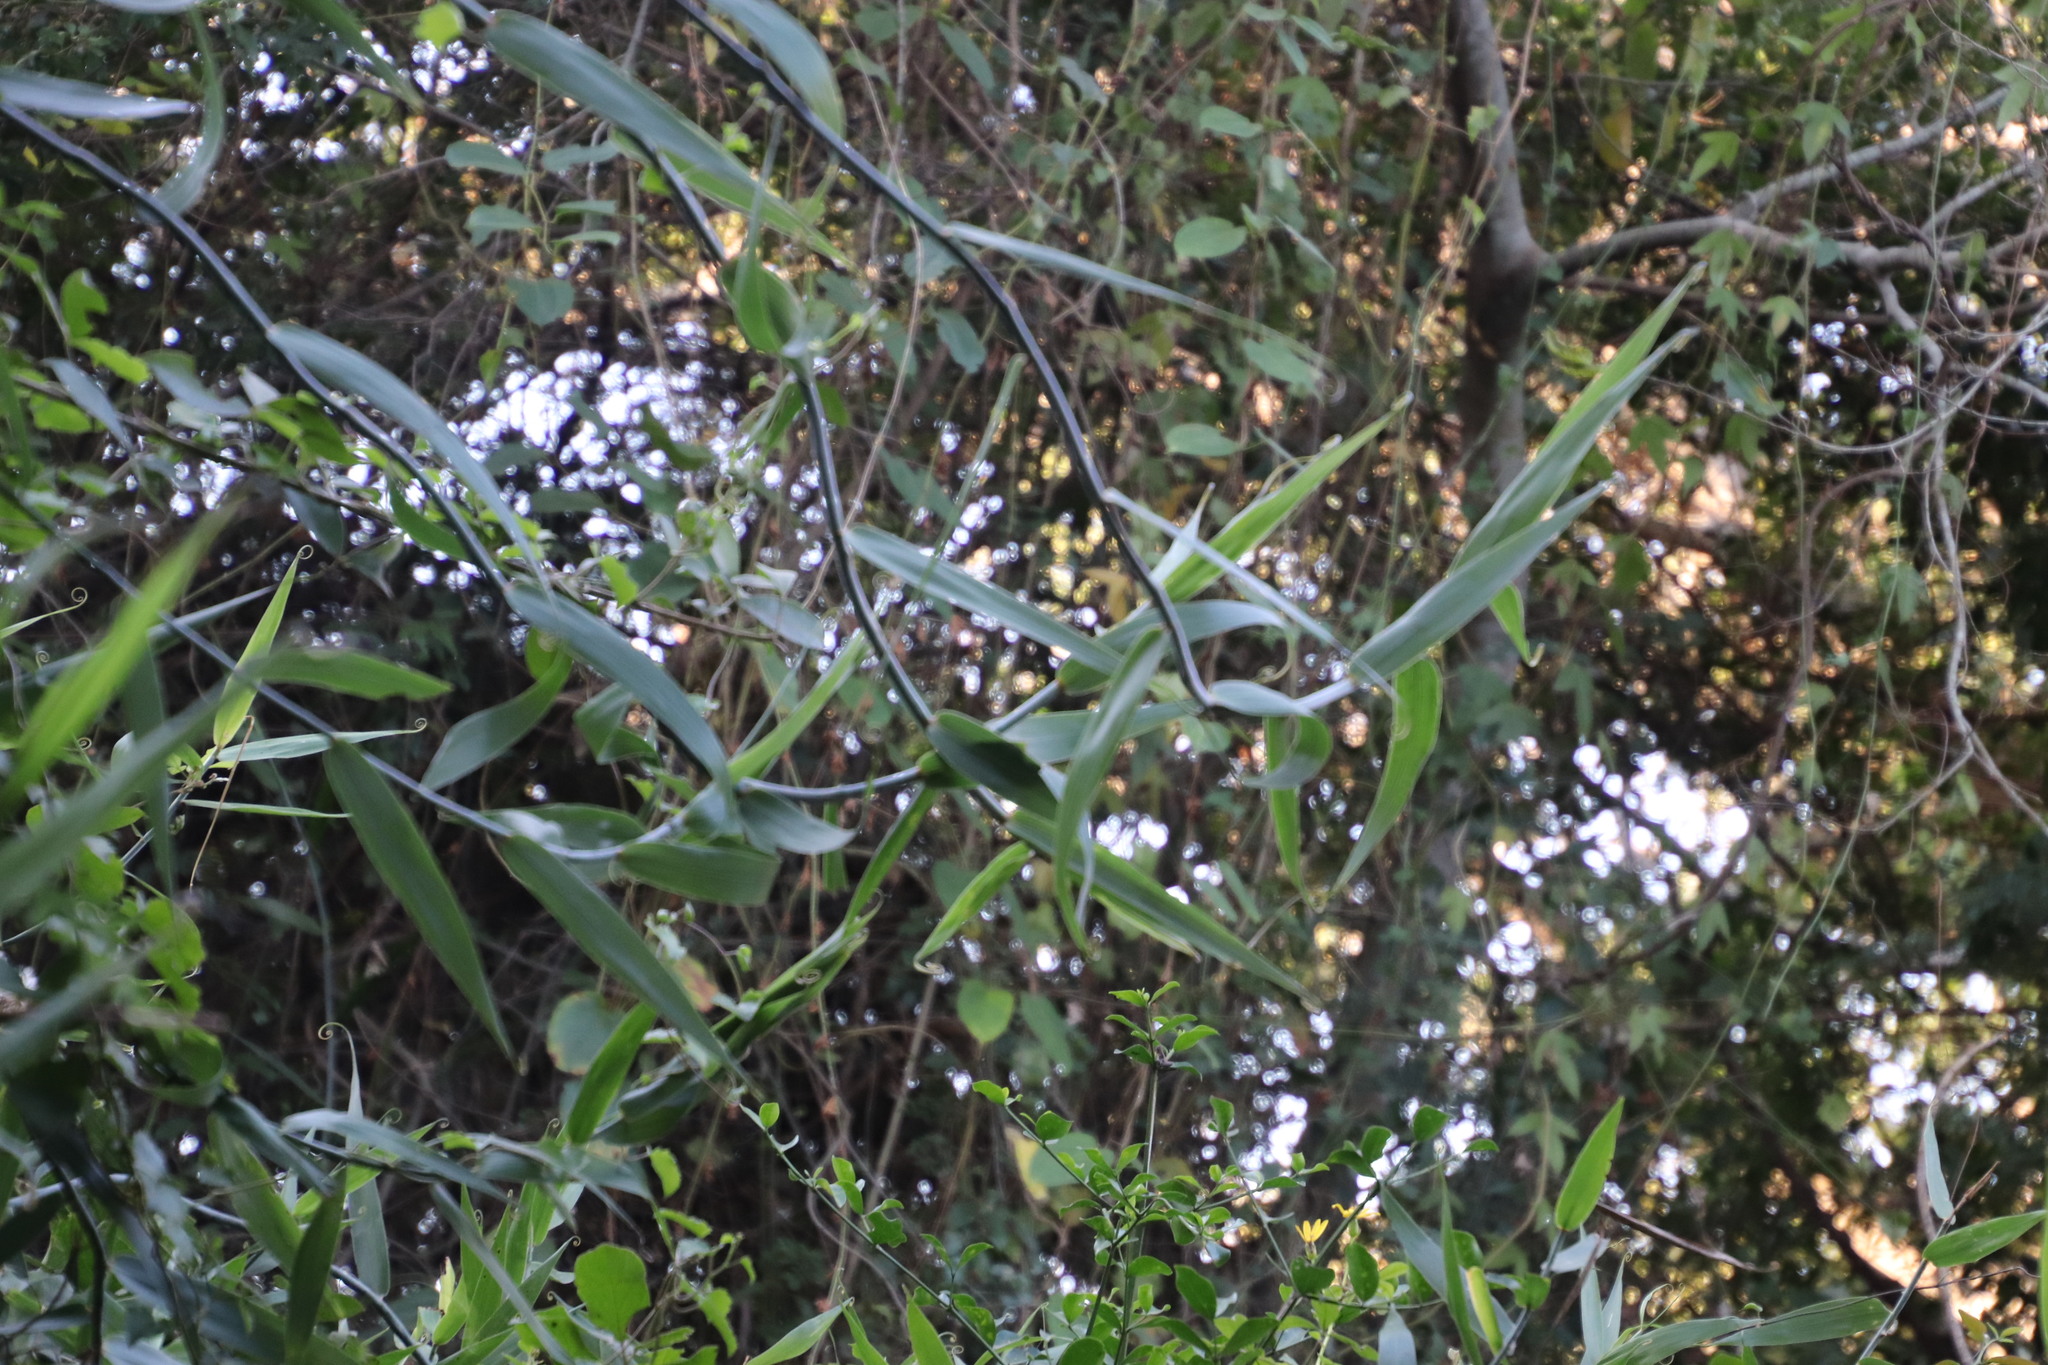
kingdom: Plantae
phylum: Tracheophyta
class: Liliopsida
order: Poales
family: Flagellariaceae
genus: Flagellaria
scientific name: Flagellaria guineensis
